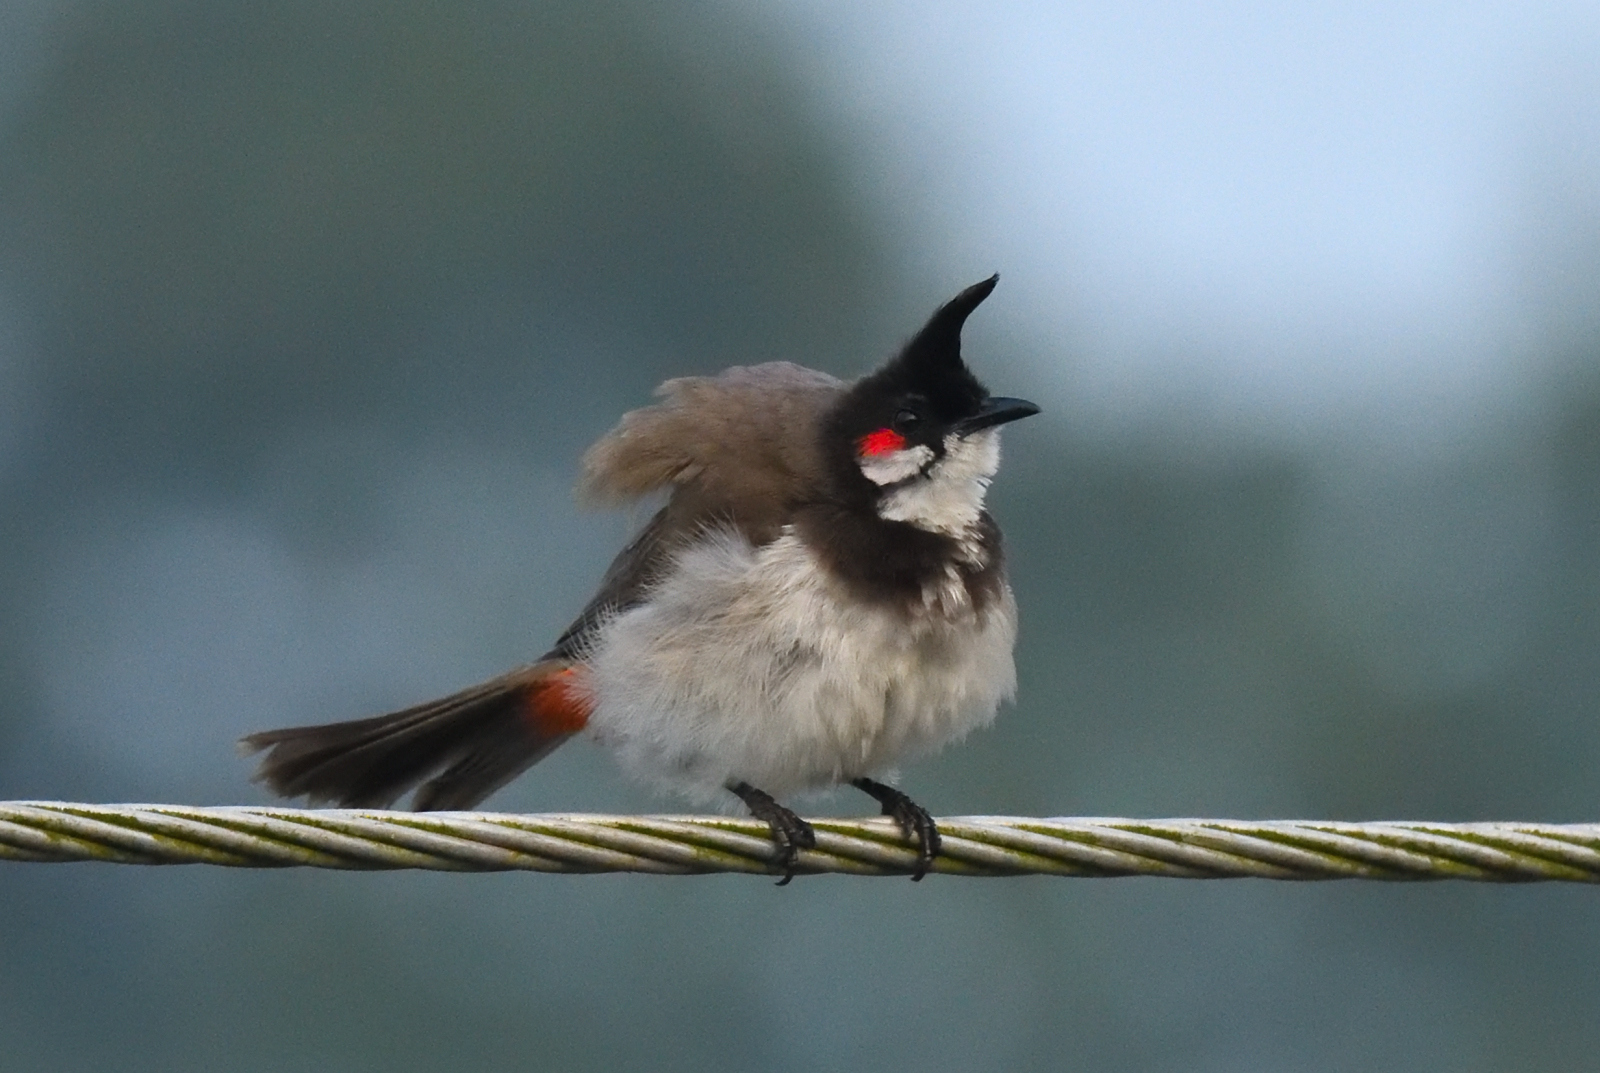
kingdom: Animalia
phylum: Chordata
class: Aves
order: Passeriformes
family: Pycnonotidae
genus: Pycnonotus
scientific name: Pycnonotus jocosus
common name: Red-whiskered bulbul
